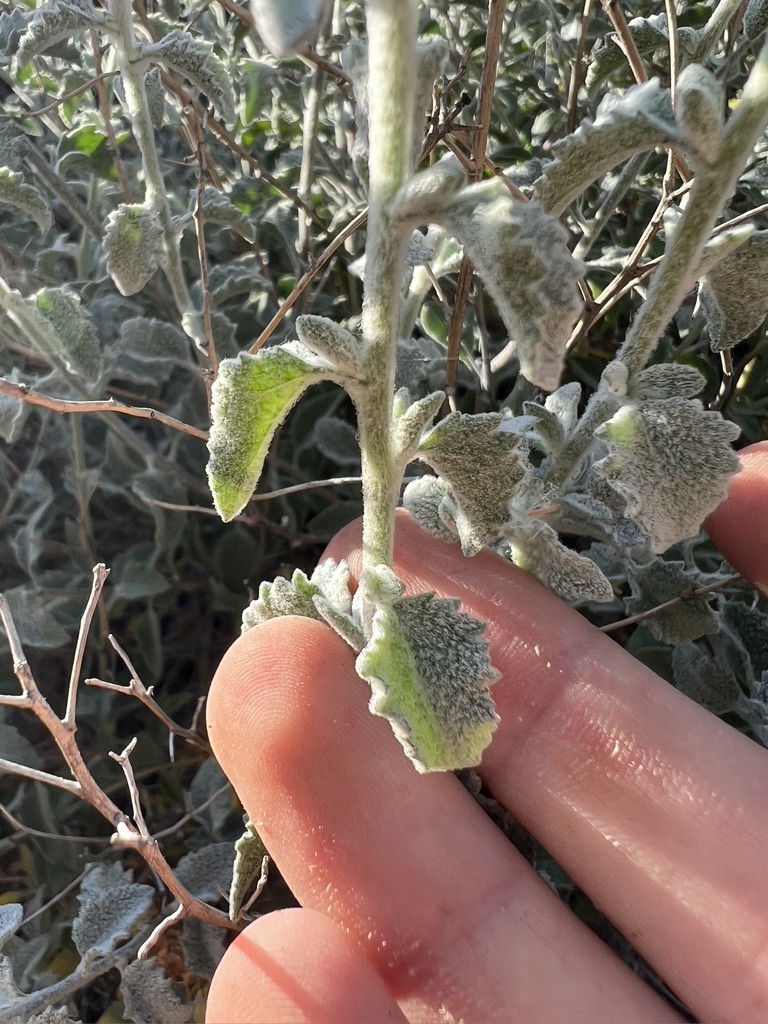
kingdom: Plantae
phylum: Tracheophyta
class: Magnoliopsida
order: Asterales
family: Asteraceae
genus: Brickellia
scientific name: Brickellia nevinii
